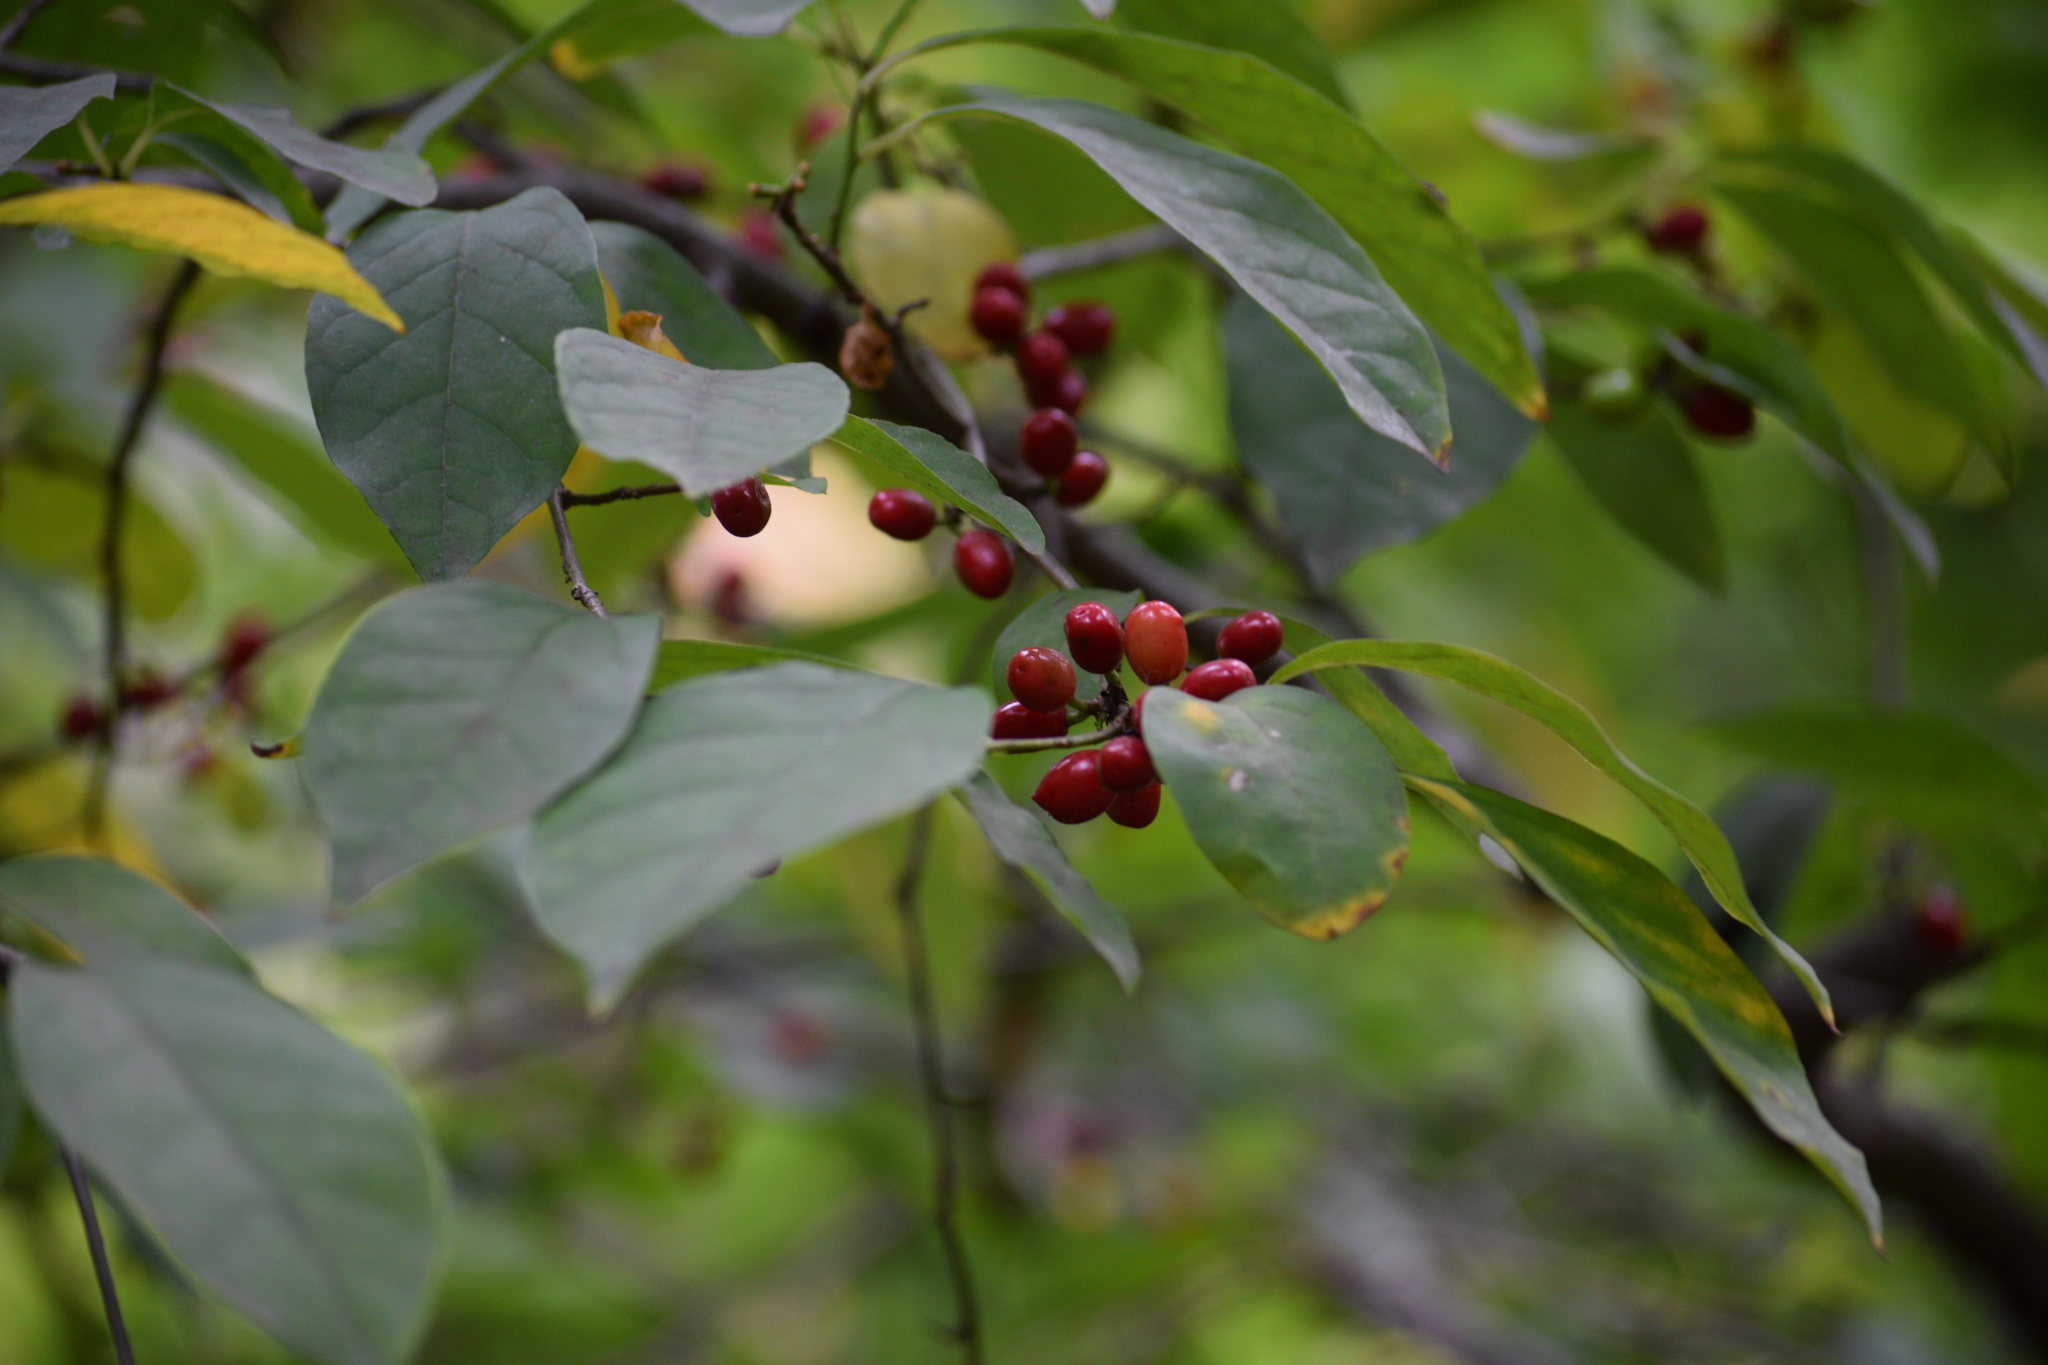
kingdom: Plantae
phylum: Tracheophyta
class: Magnoliopsida
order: Laurales
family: Lauraceae
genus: Lindera
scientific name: Lindera benzoin
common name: Spicebush
